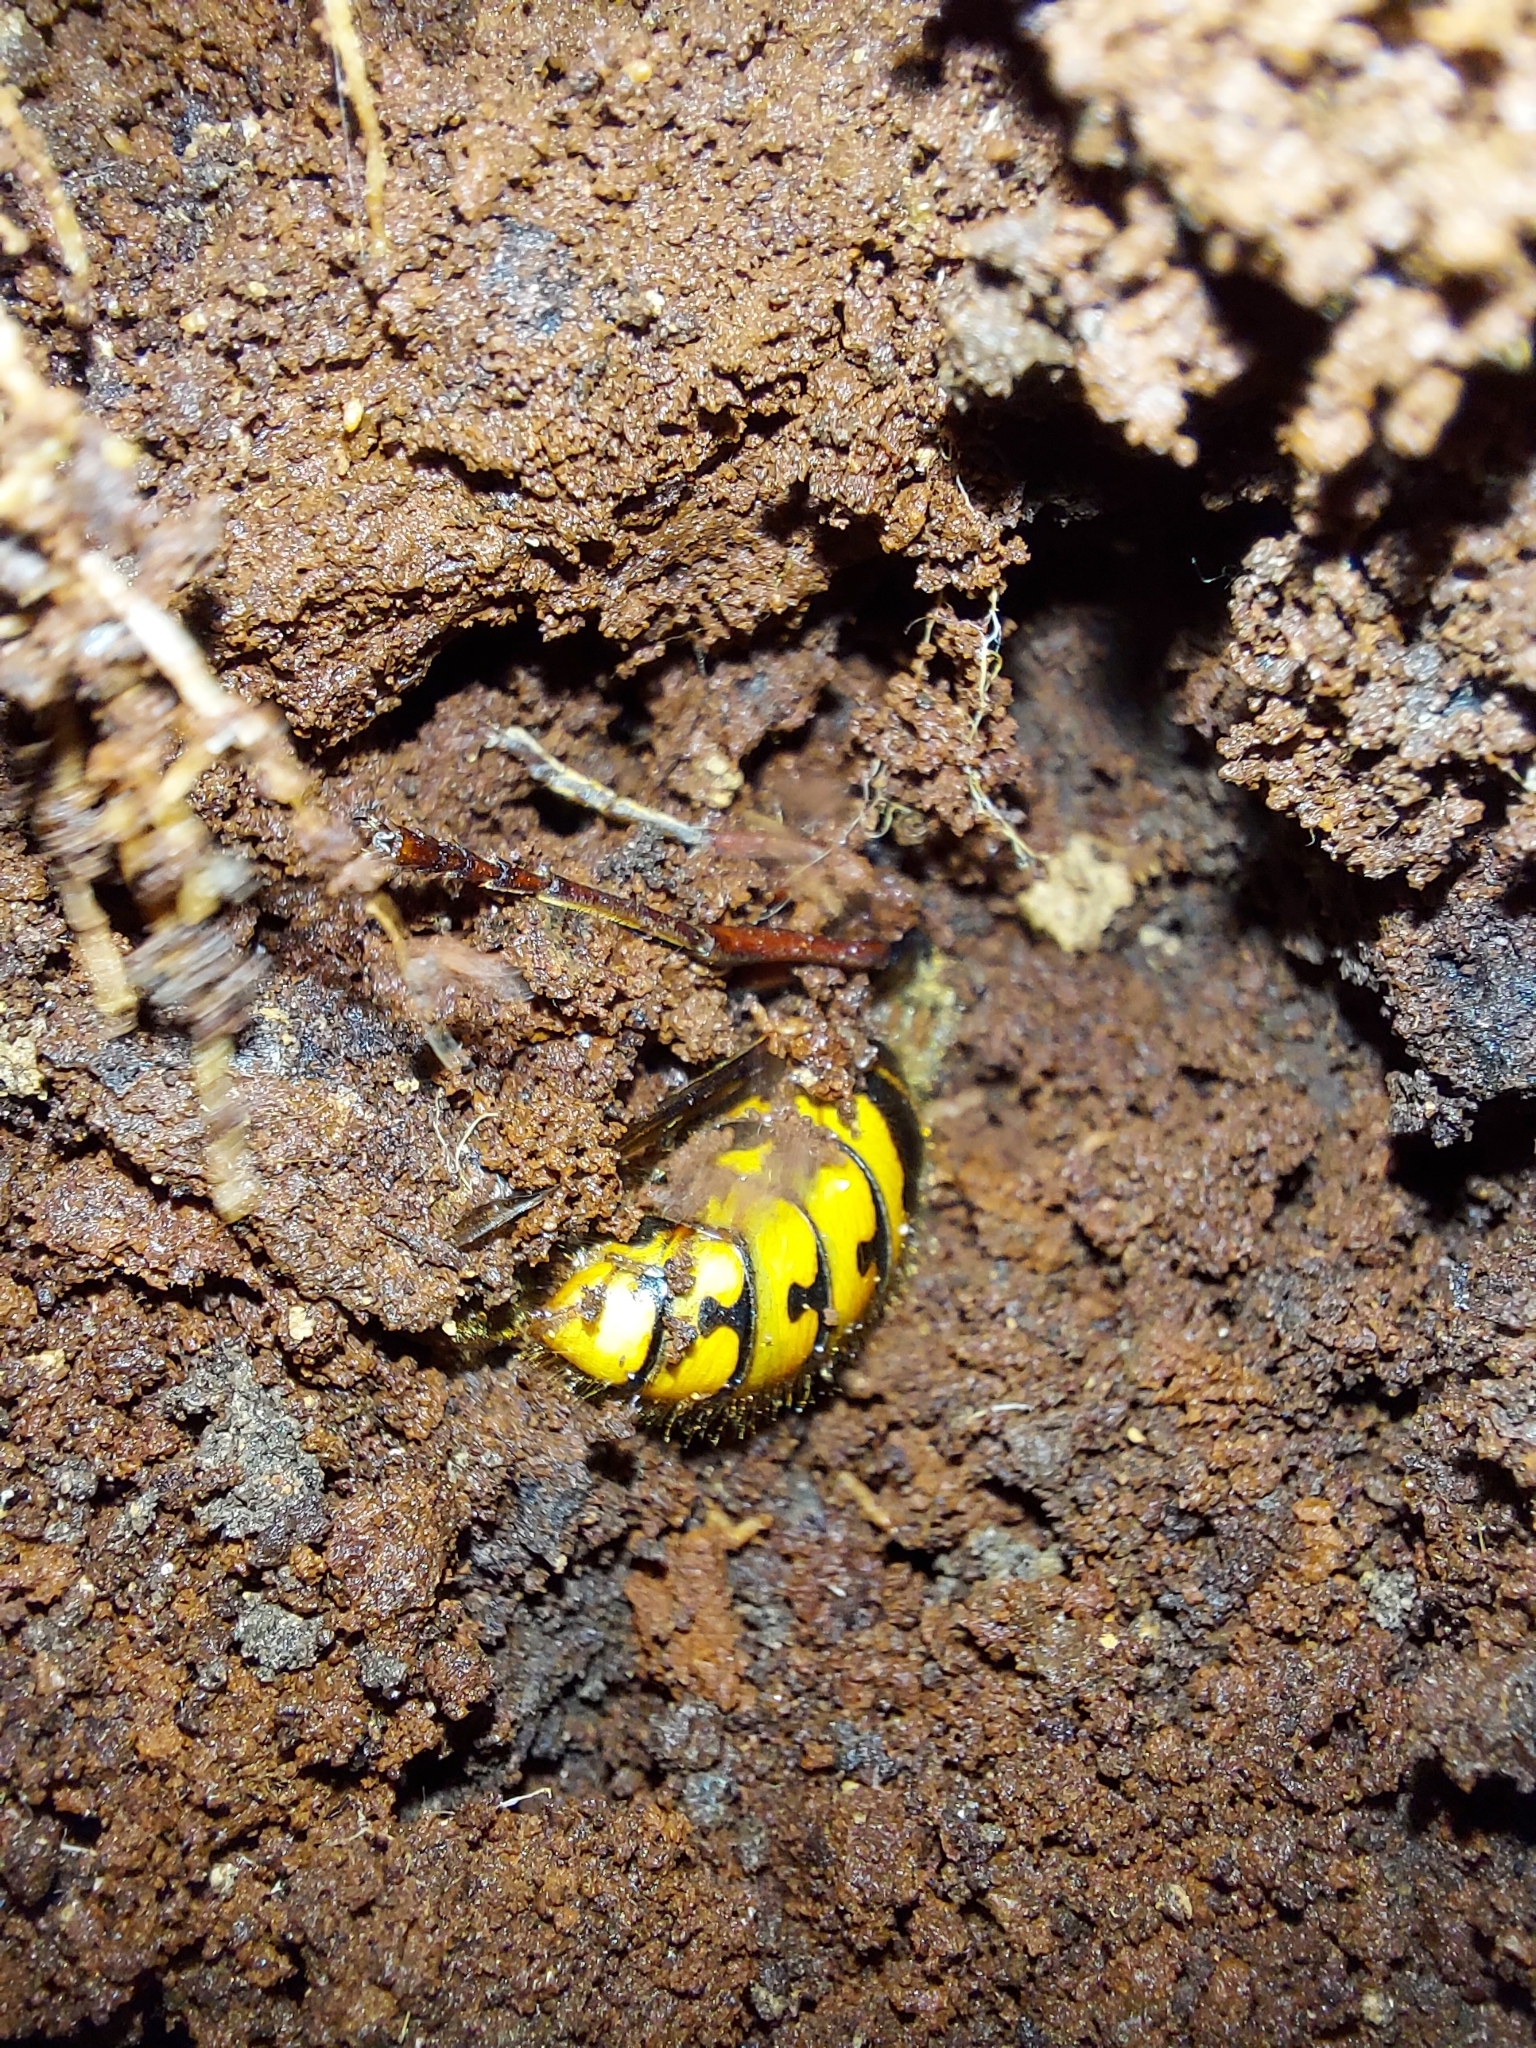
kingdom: Animalia
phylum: Arthropoda
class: Insecta
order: Hymenoptera
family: Vespidae
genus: Vespa
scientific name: Vespa crabro
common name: Hornet
